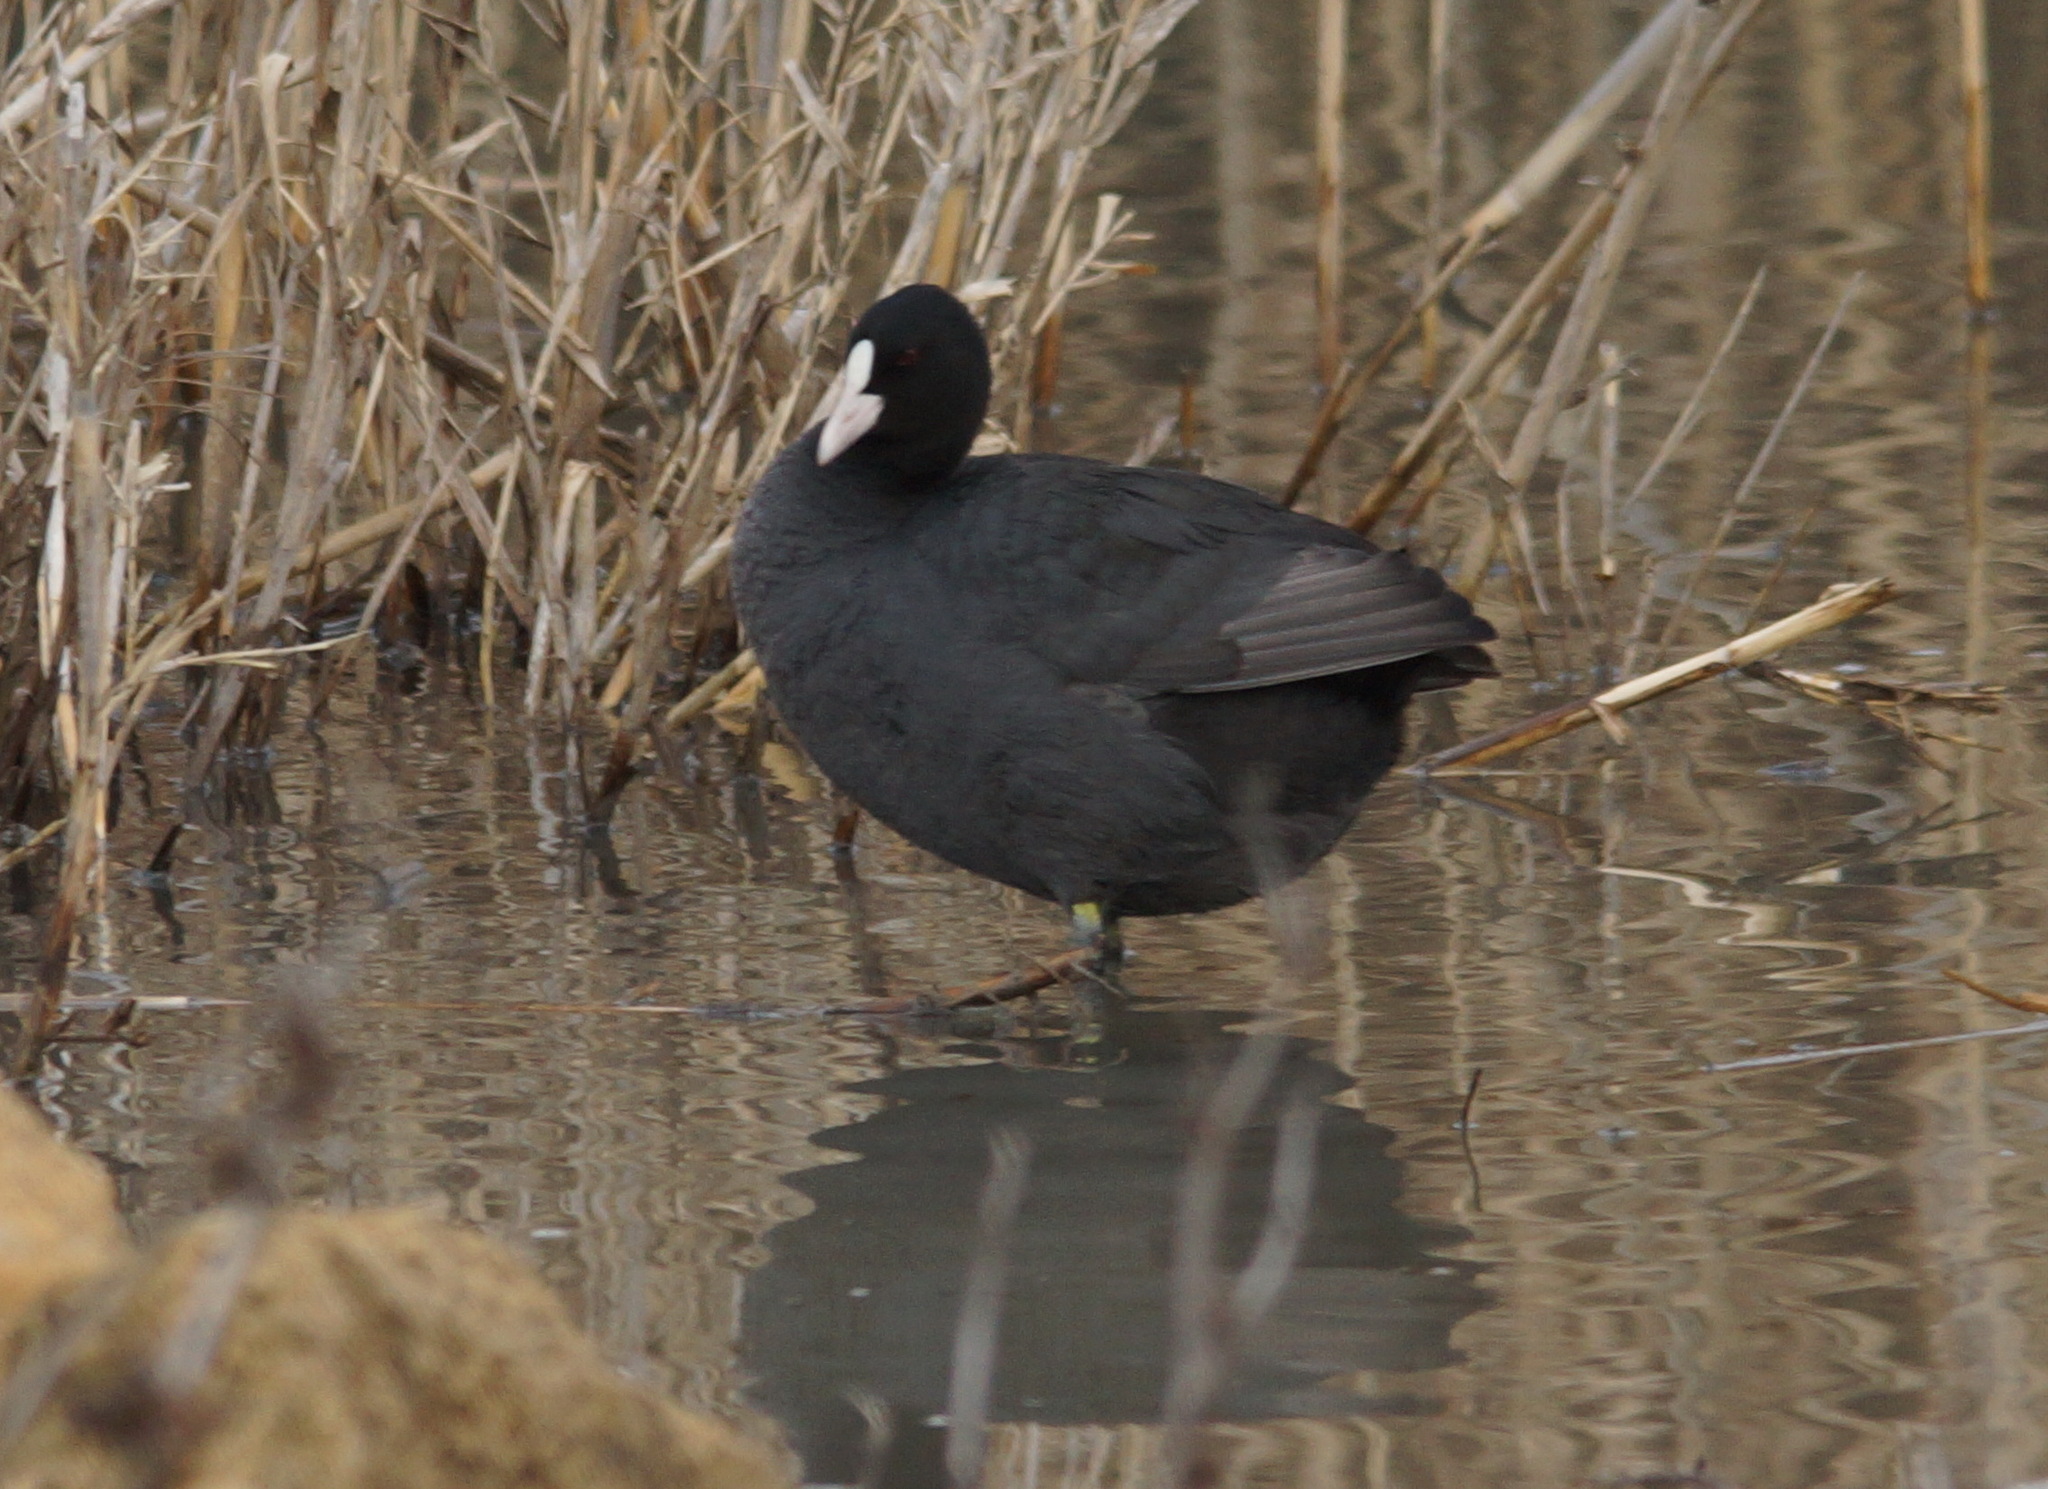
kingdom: Animalia
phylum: Chordata
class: Aves
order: Gruiformes
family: Rallidae
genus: Fulica
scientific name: Fulica atra
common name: Eurasian coot
